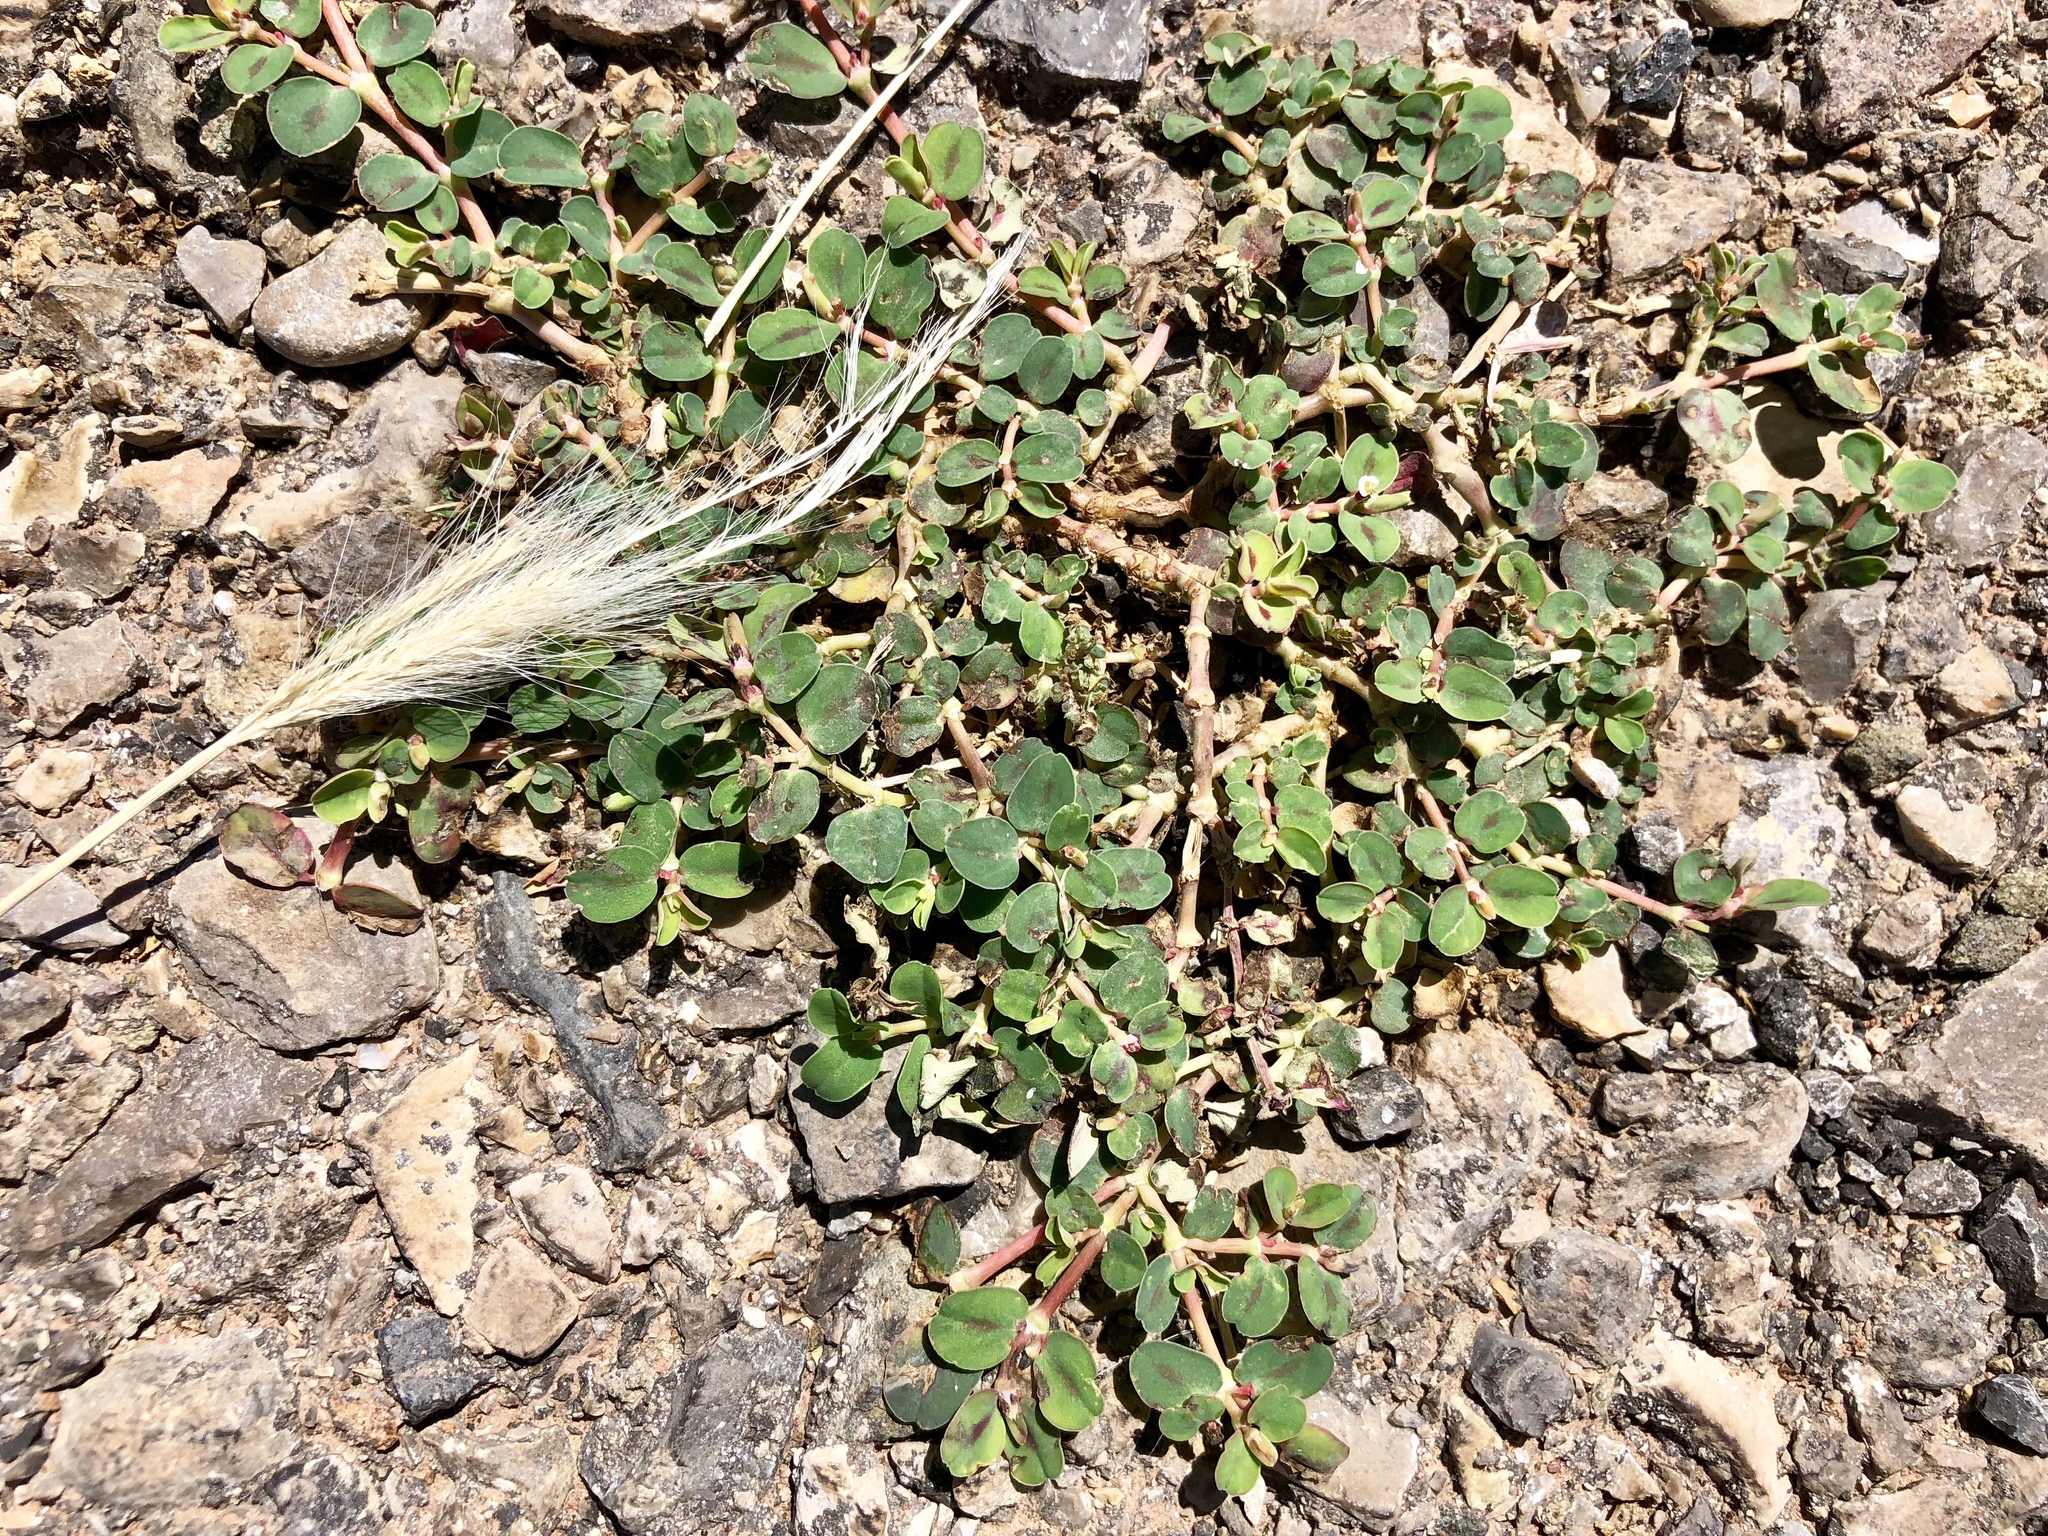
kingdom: Plantae
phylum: Tracheophyta
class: Magnoliopsida
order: Malpighiales
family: Euphorbiaceae
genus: Euphorbia
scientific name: Euphorbia albomarginata
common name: Whitemargin sandmat
